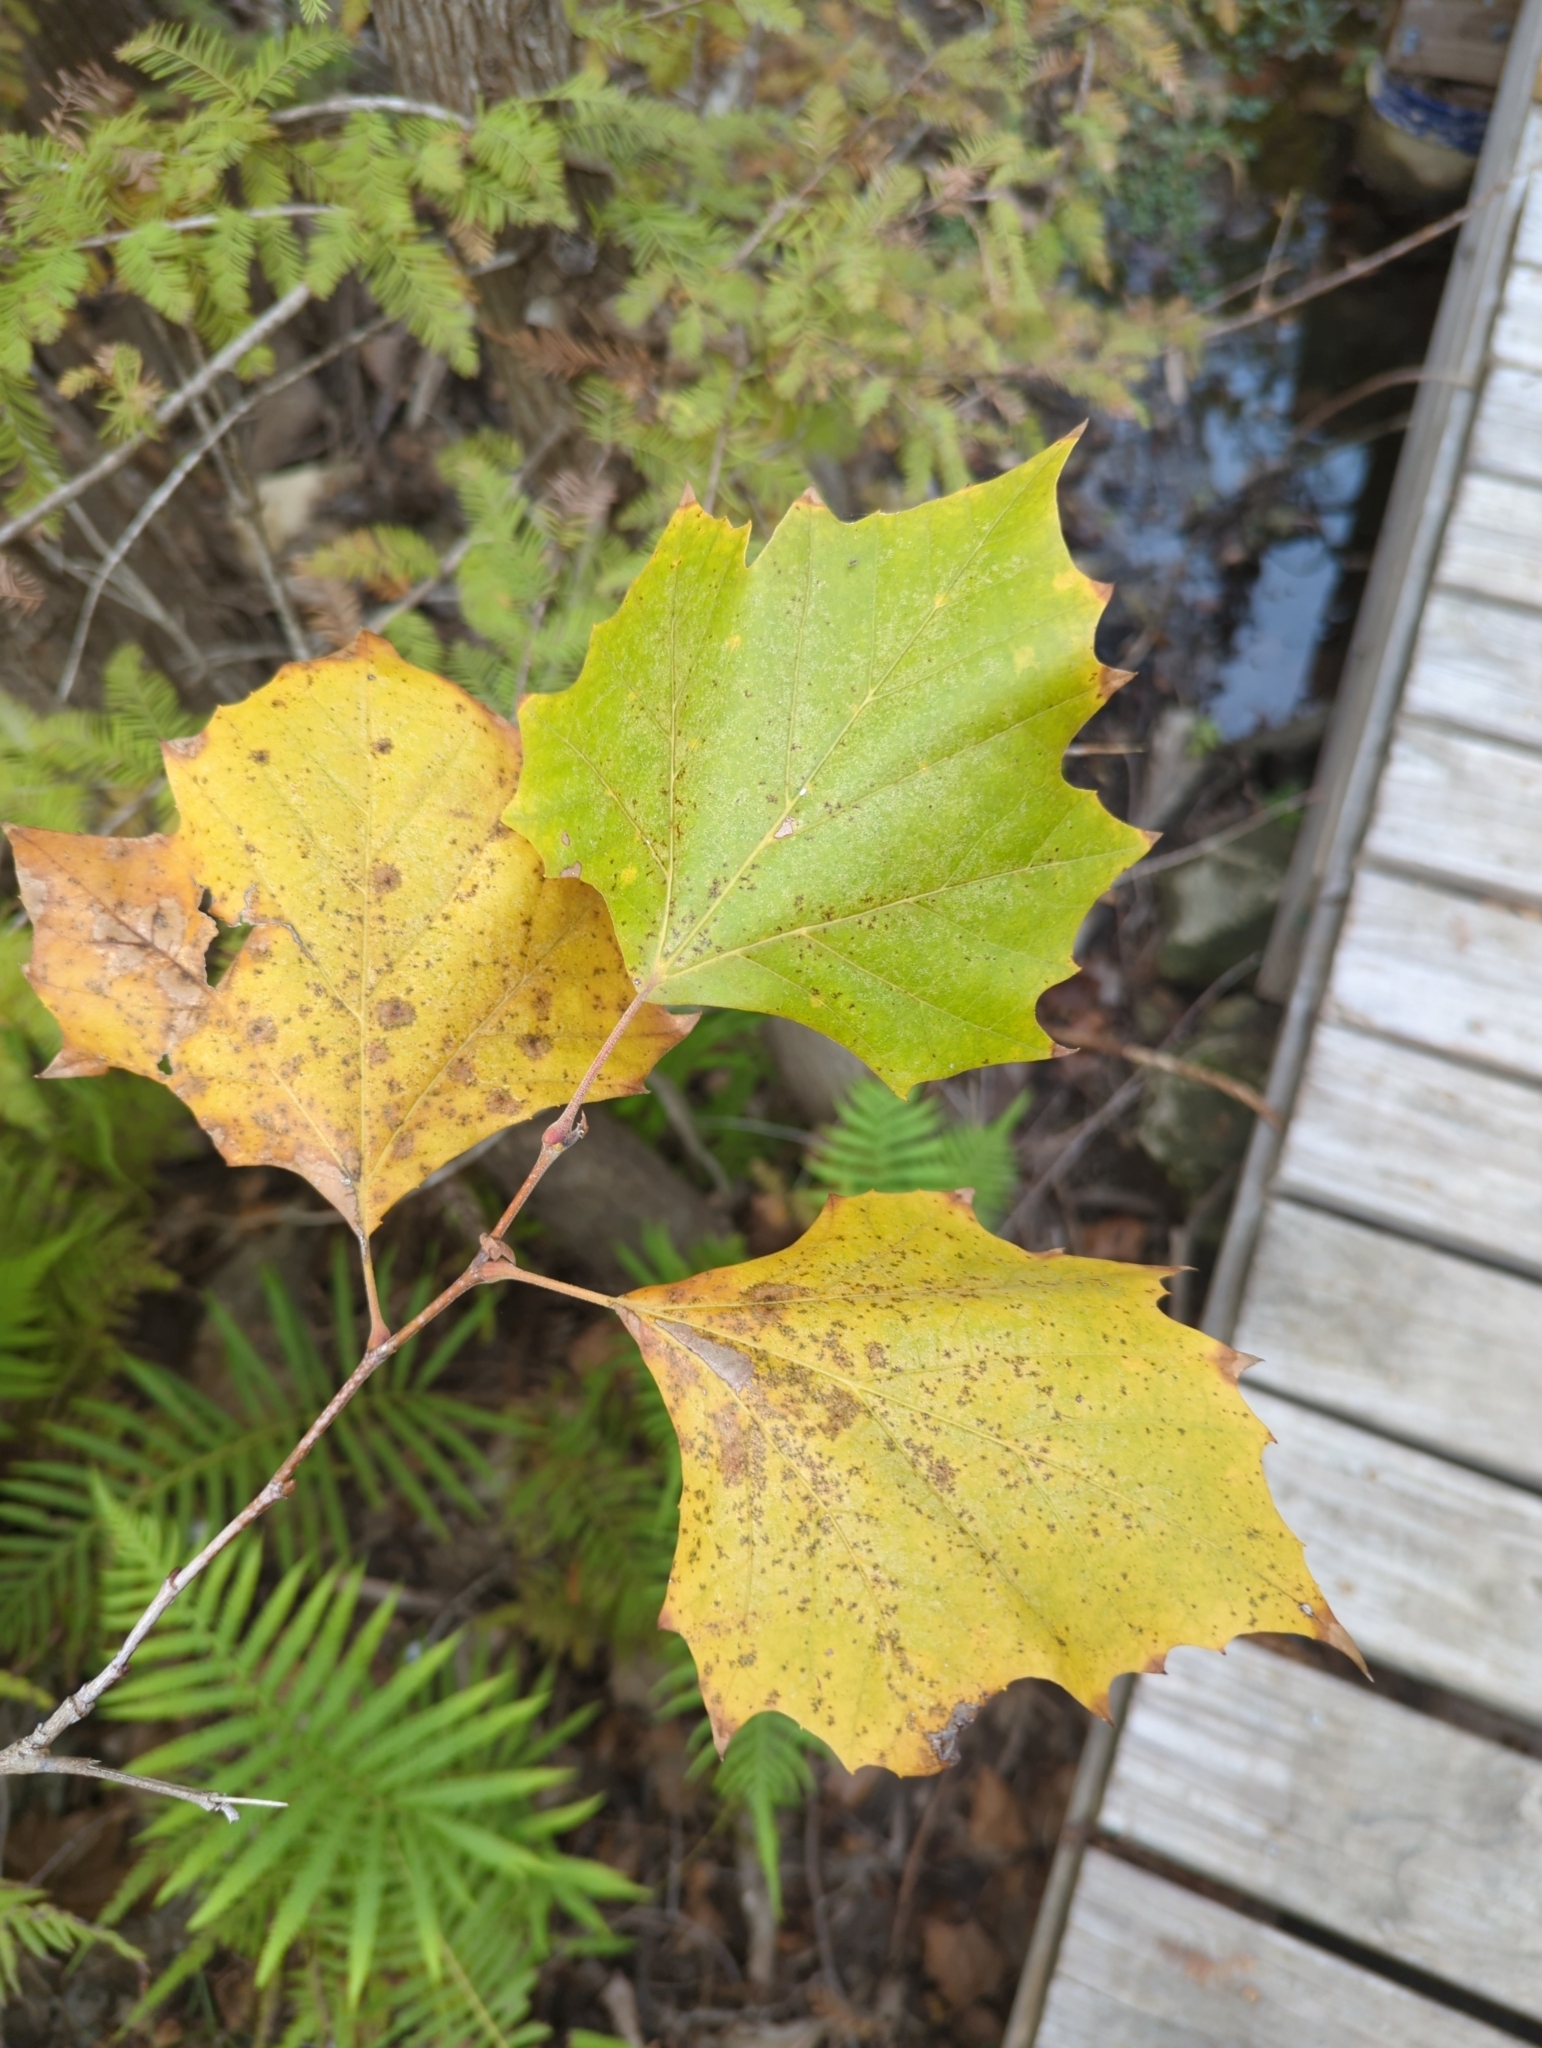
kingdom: Plantae
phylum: Tracheophyta
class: Magnoliopsida
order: Proteales
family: Platanaceae
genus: Platanus
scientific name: Platanus occidentalis
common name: American sycamore
